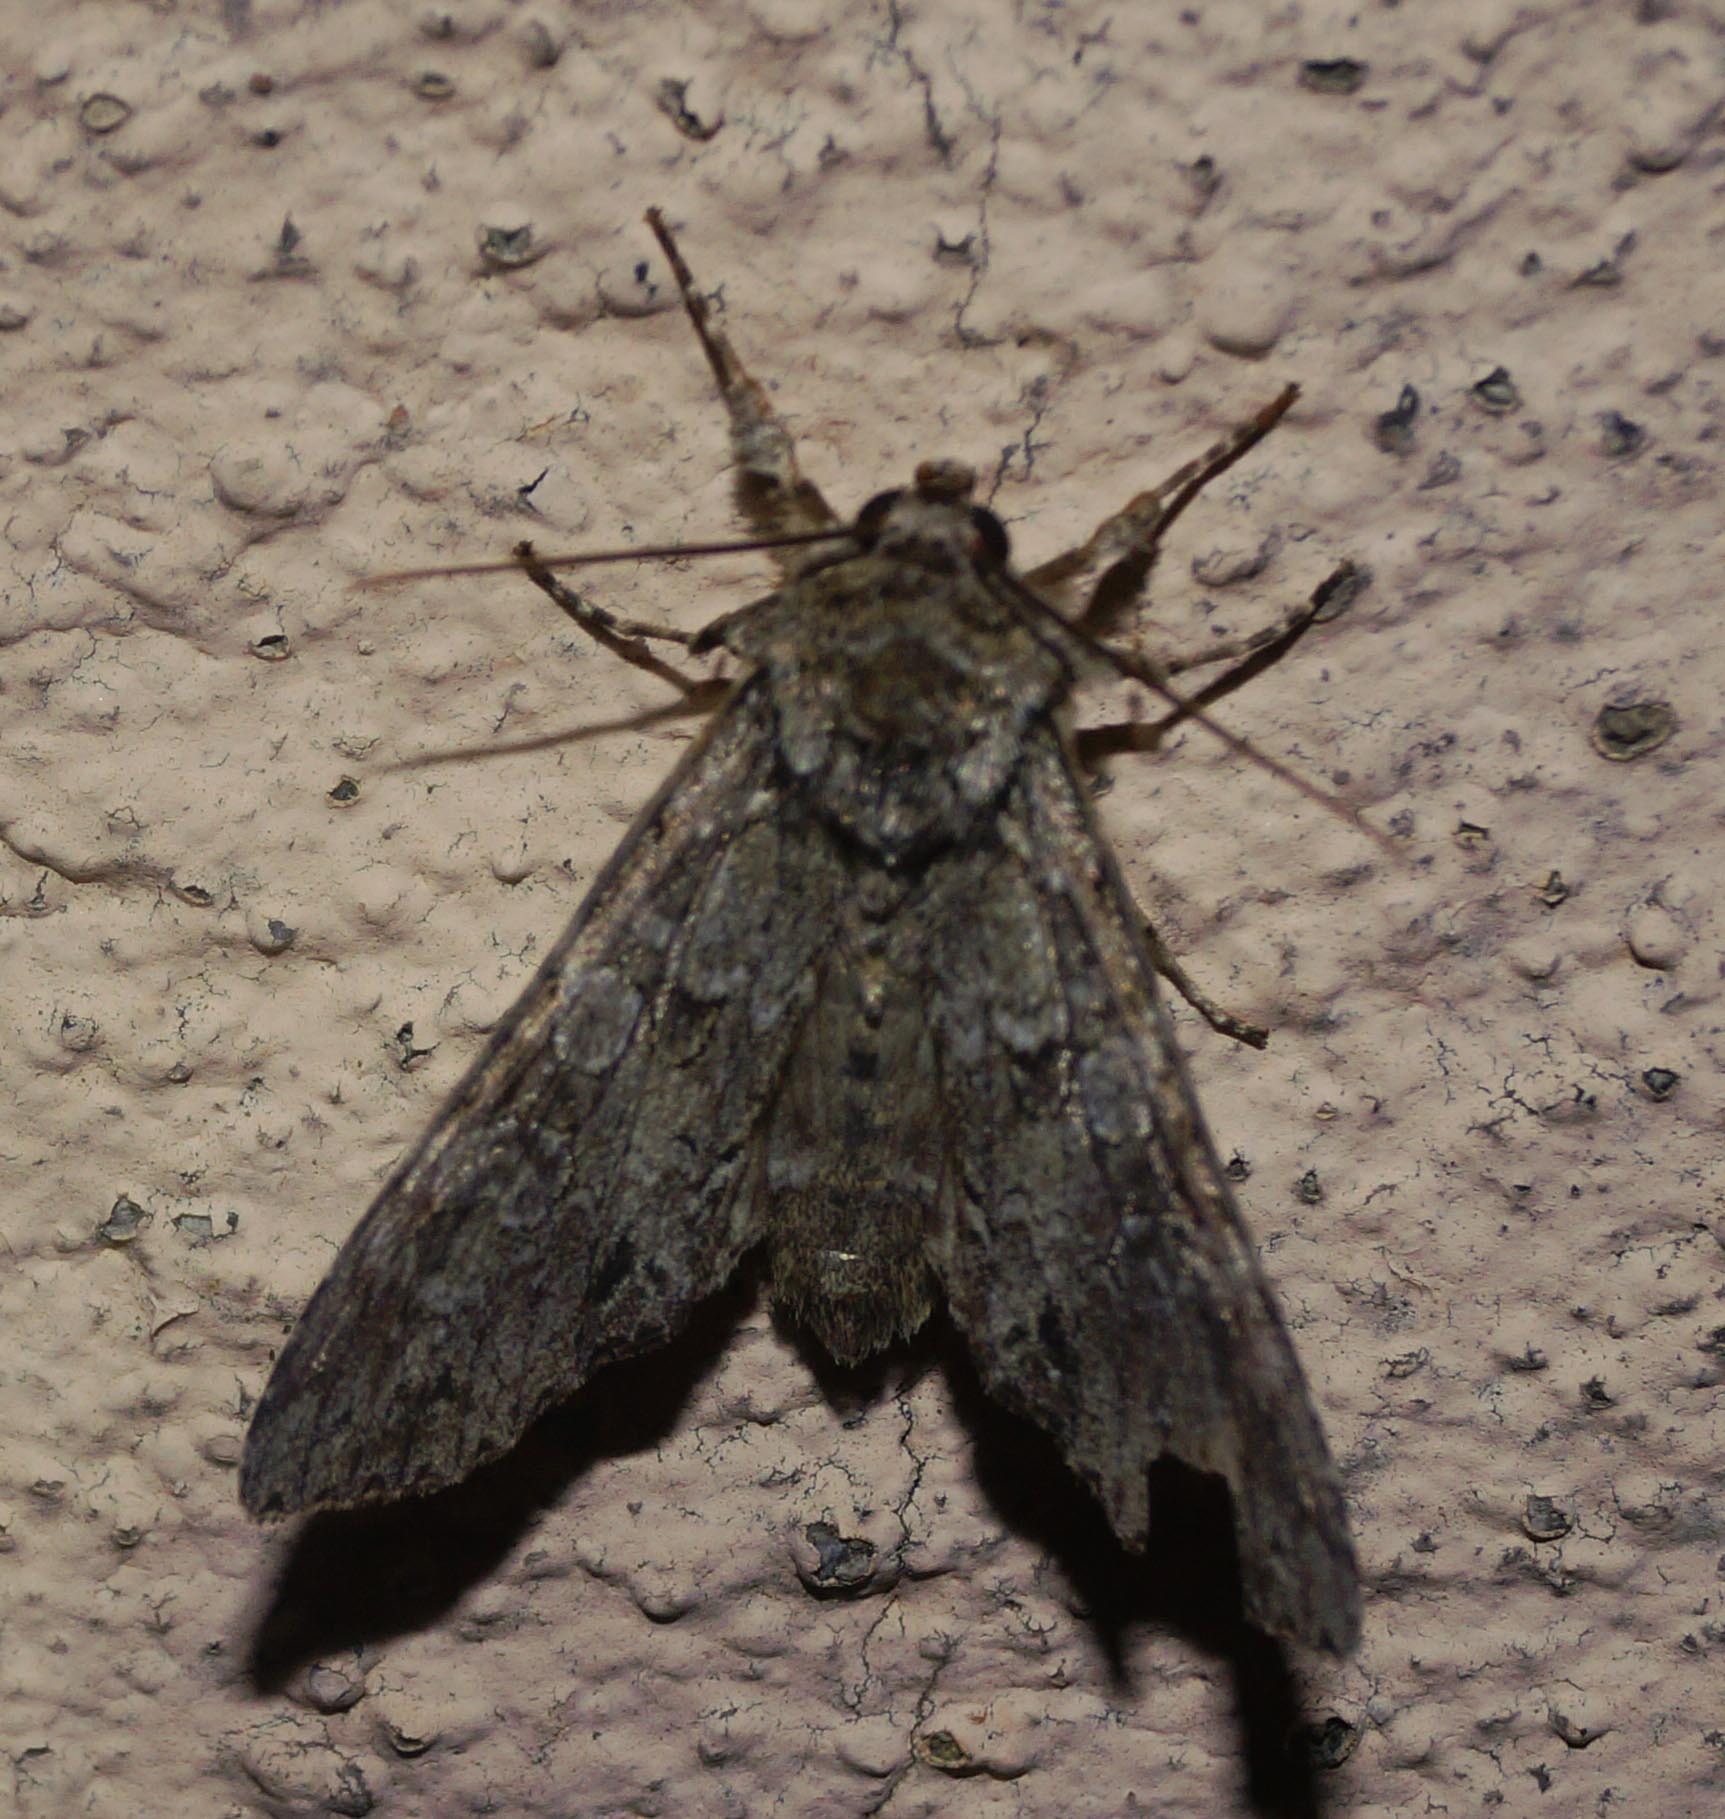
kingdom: Animalia
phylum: Arthropoda
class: Insecta
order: Lepidoptera
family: Noctuidae
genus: Polia
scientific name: Polia nebulosa
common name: Grey arches
